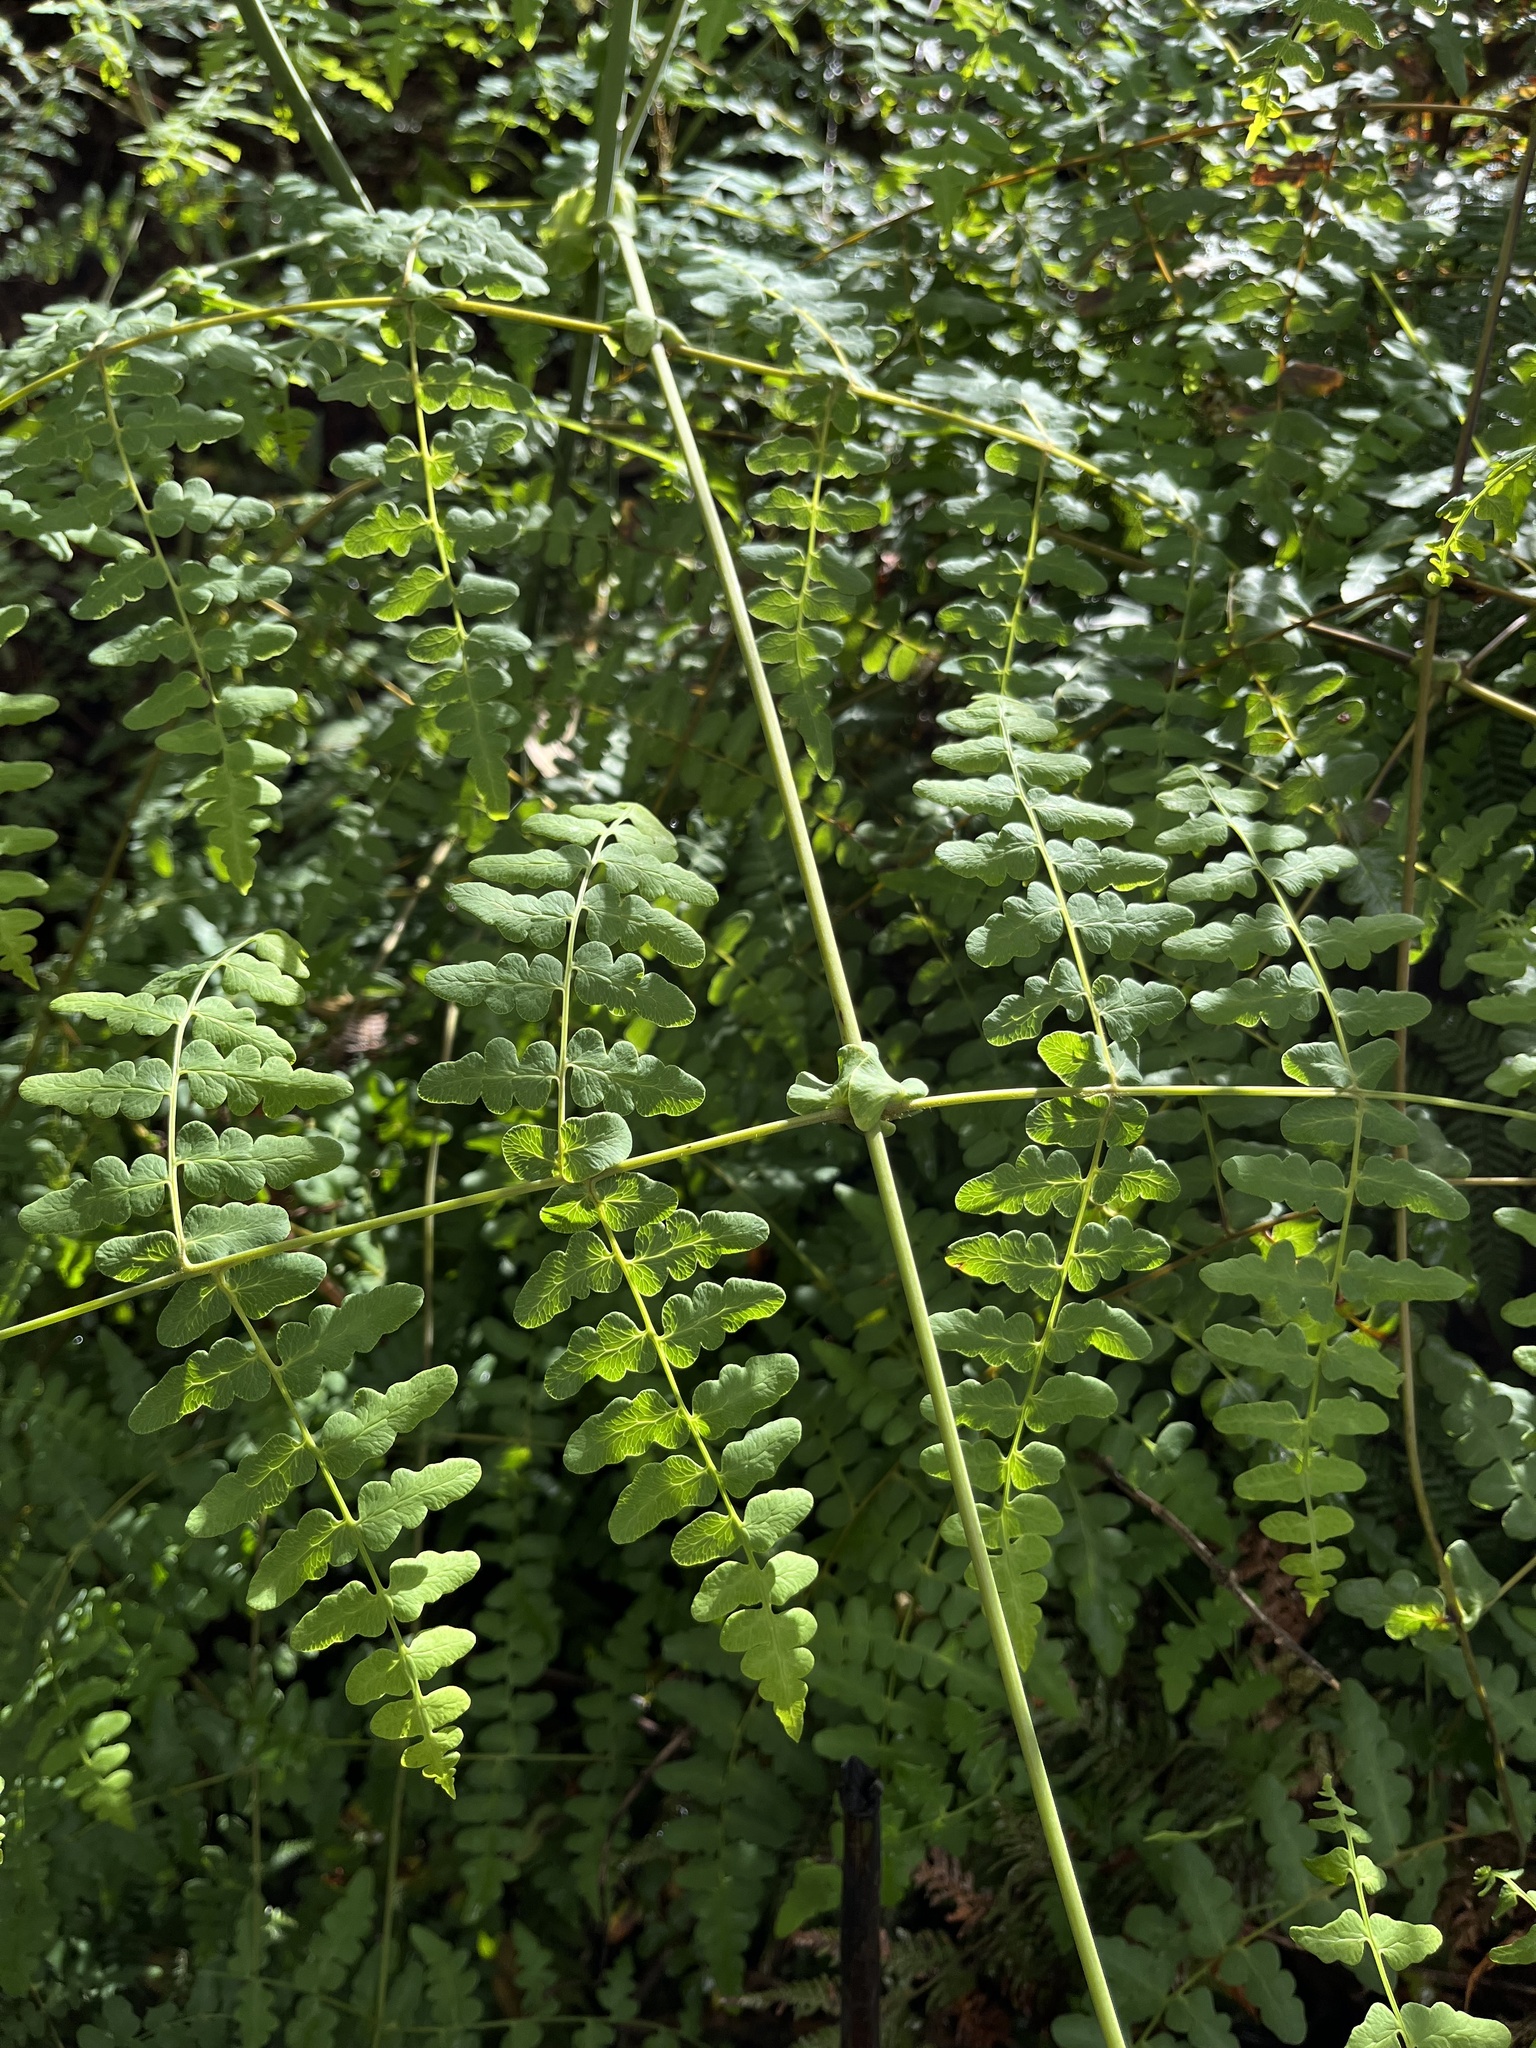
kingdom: Plantae
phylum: Tracheophyta
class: Polypodiopsida
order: Polypodiales
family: Dennstaedtiaceae
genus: Histiopteris
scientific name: Histiopteris incisa
